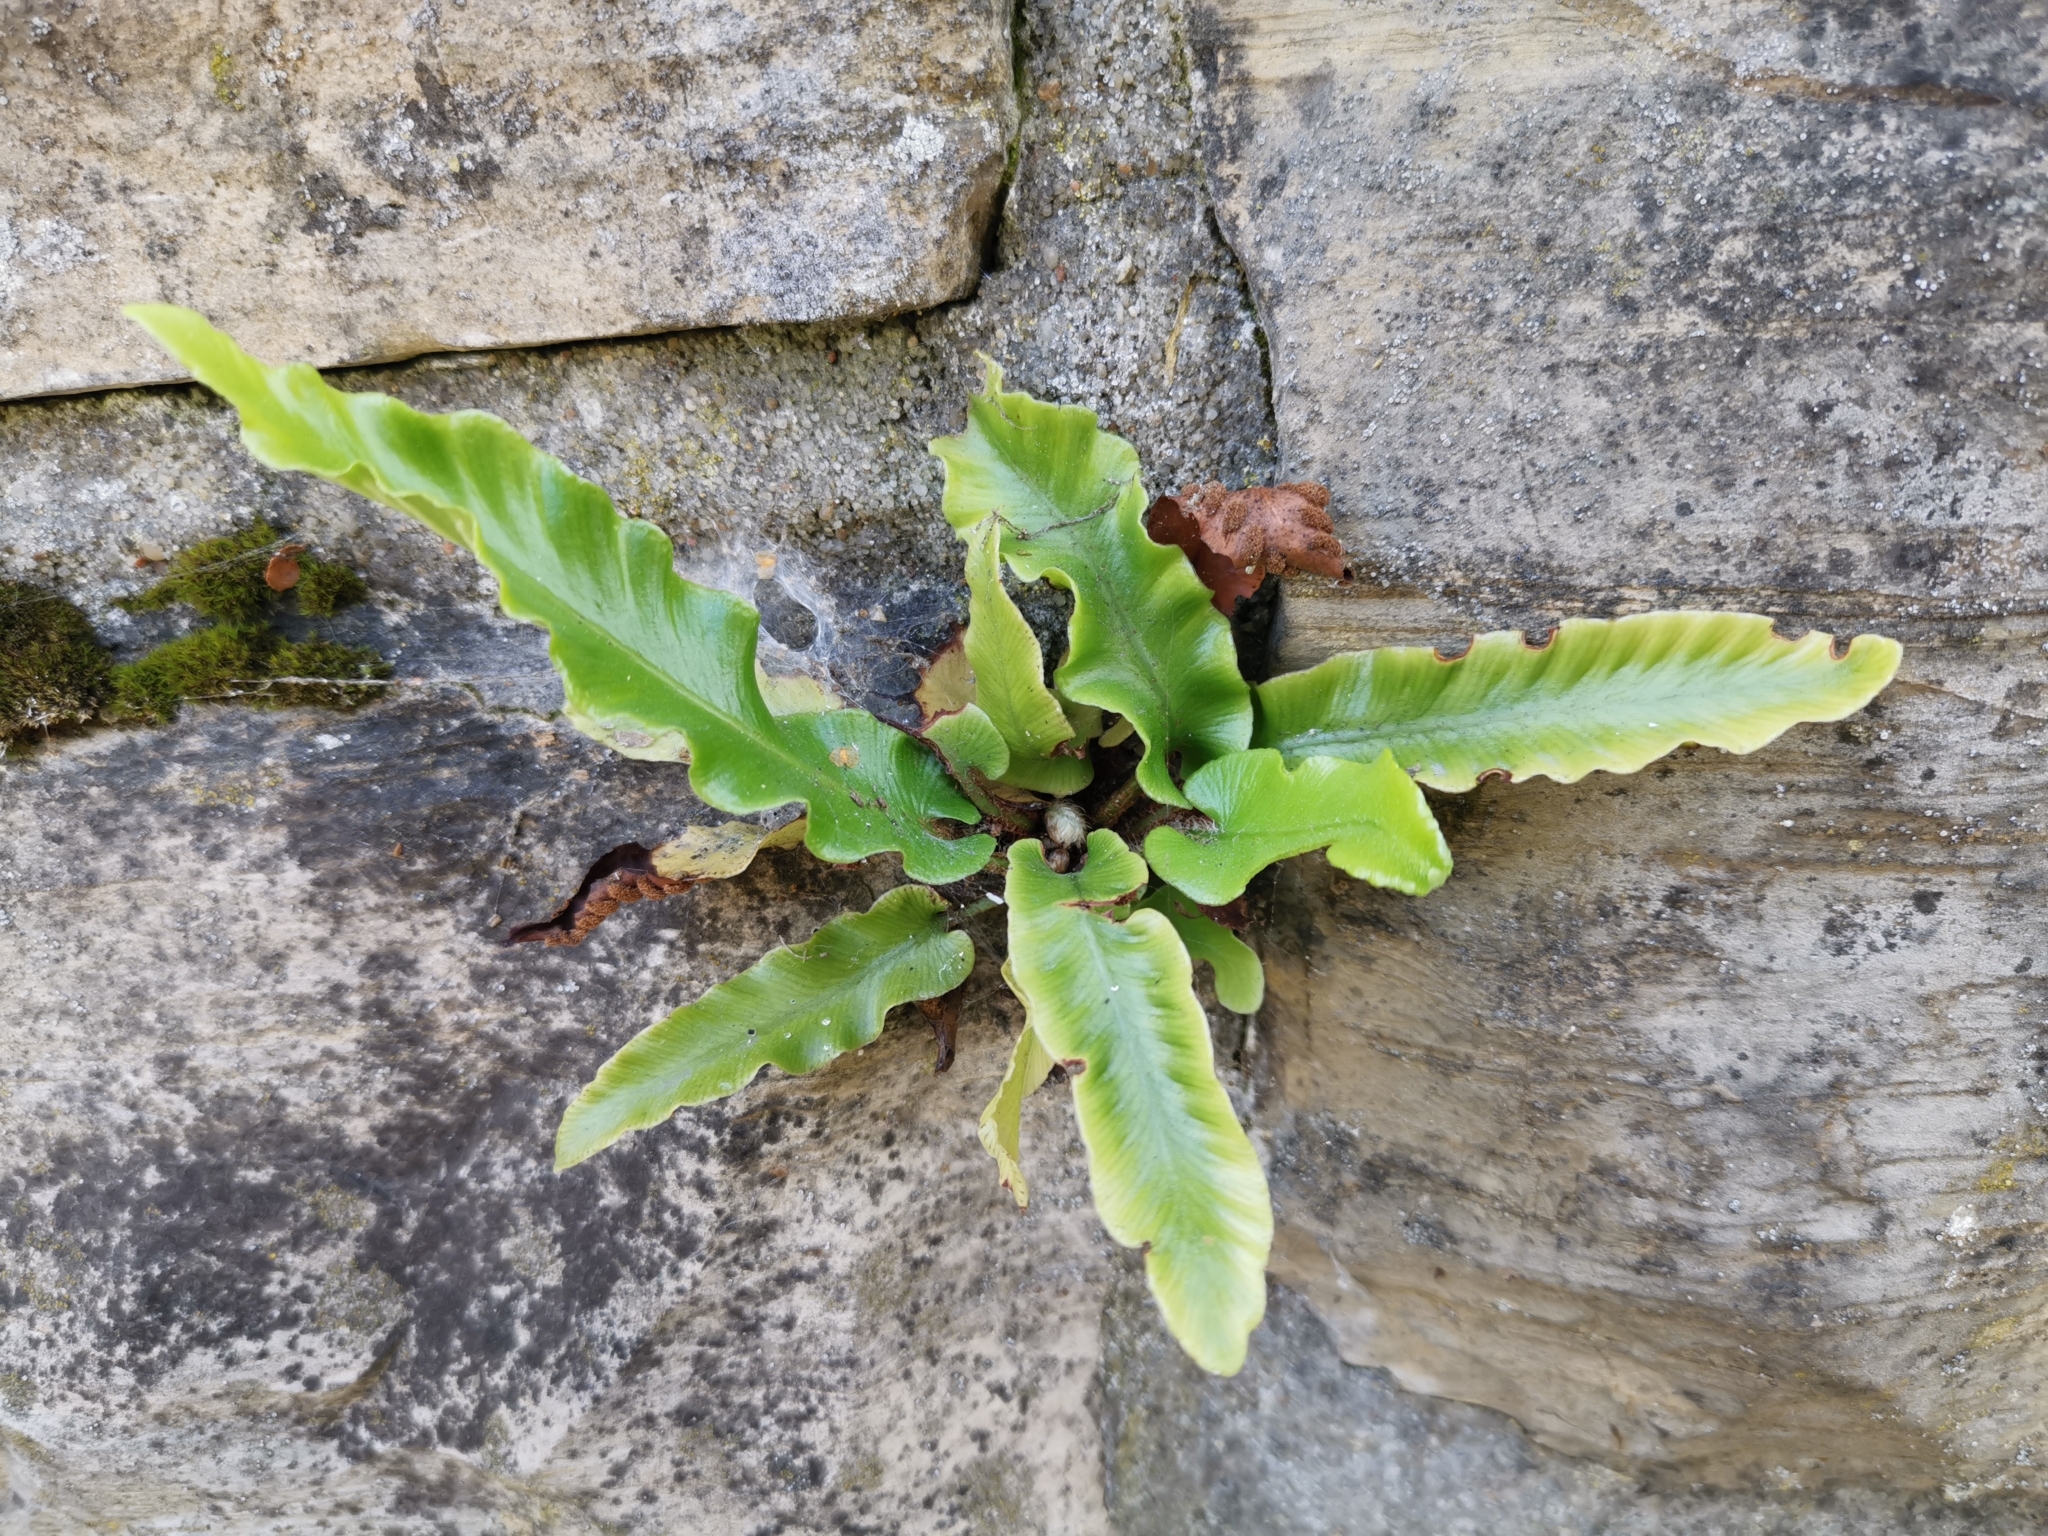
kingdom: Plantae
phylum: Tracheophyta
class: Polypodiopsida
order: Polypodiales
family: Aspleniaceae
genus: Asplenium
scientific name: Asplenium scolopendrium
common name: Hart's-tongue fern
